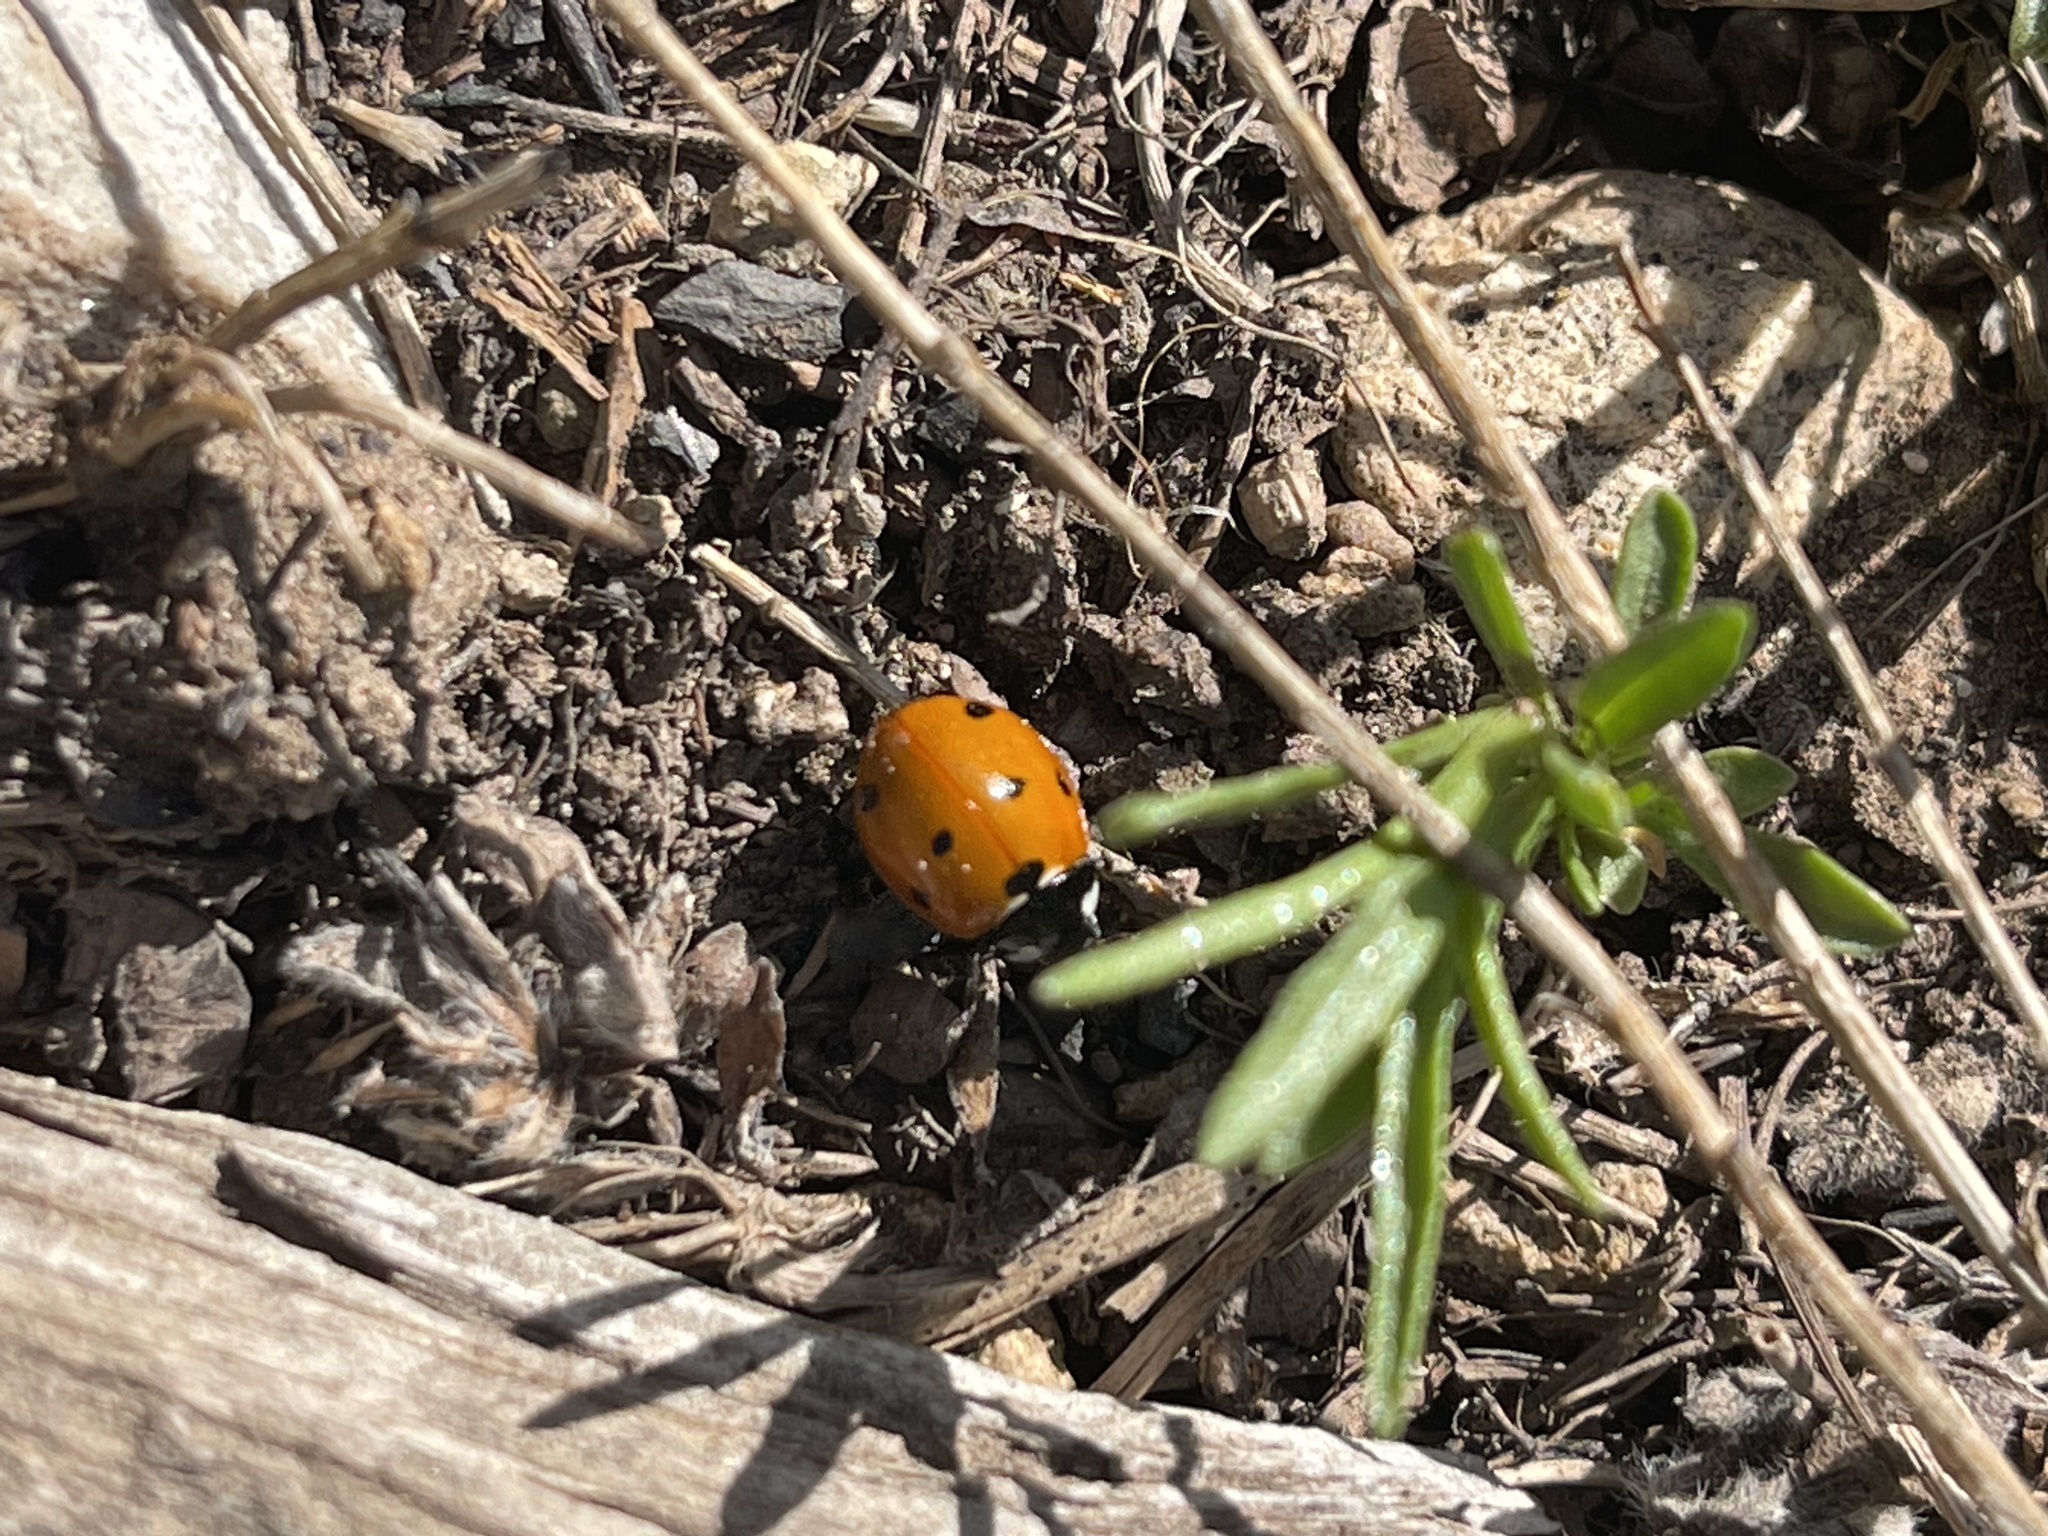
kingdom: Animalia
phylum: Arthropoda
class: Insecta
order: Coleoptera
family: Coccinellidae
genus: Coccinella
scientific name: Coccinella septempunctata
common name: Sevenspotted lady beetle
